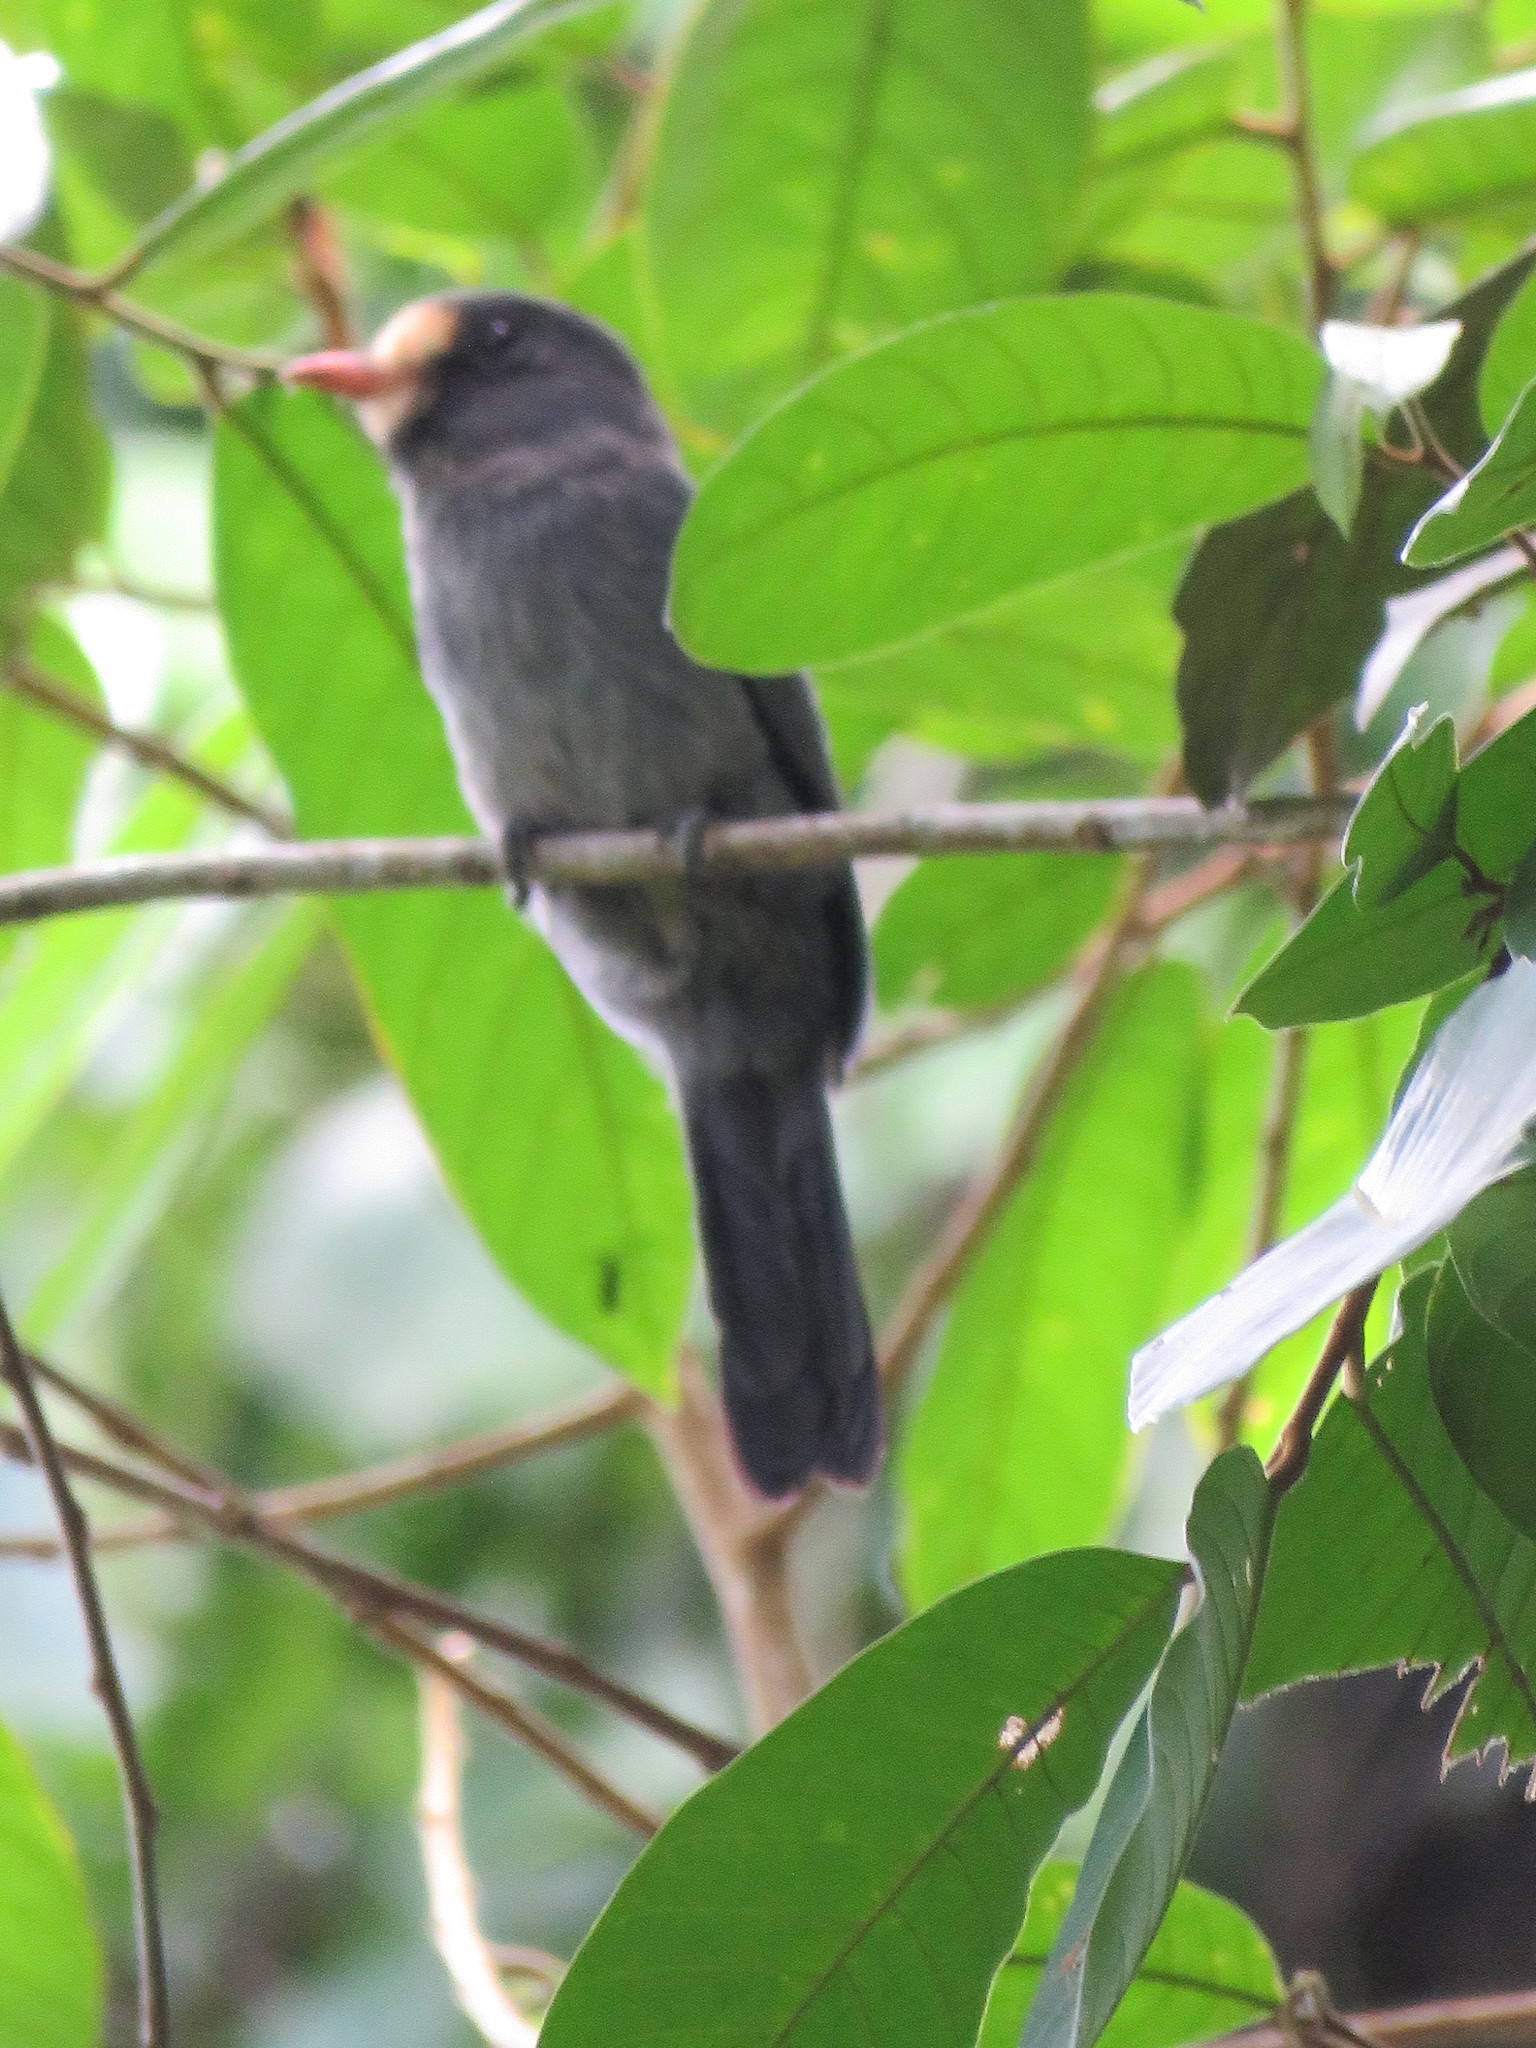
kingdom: Animalia
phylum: Chordata
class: Aves
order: Piciformes
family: Bucconidae
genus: Monasa
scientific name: Monasa morphoeus
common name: White-fronted nunbird
